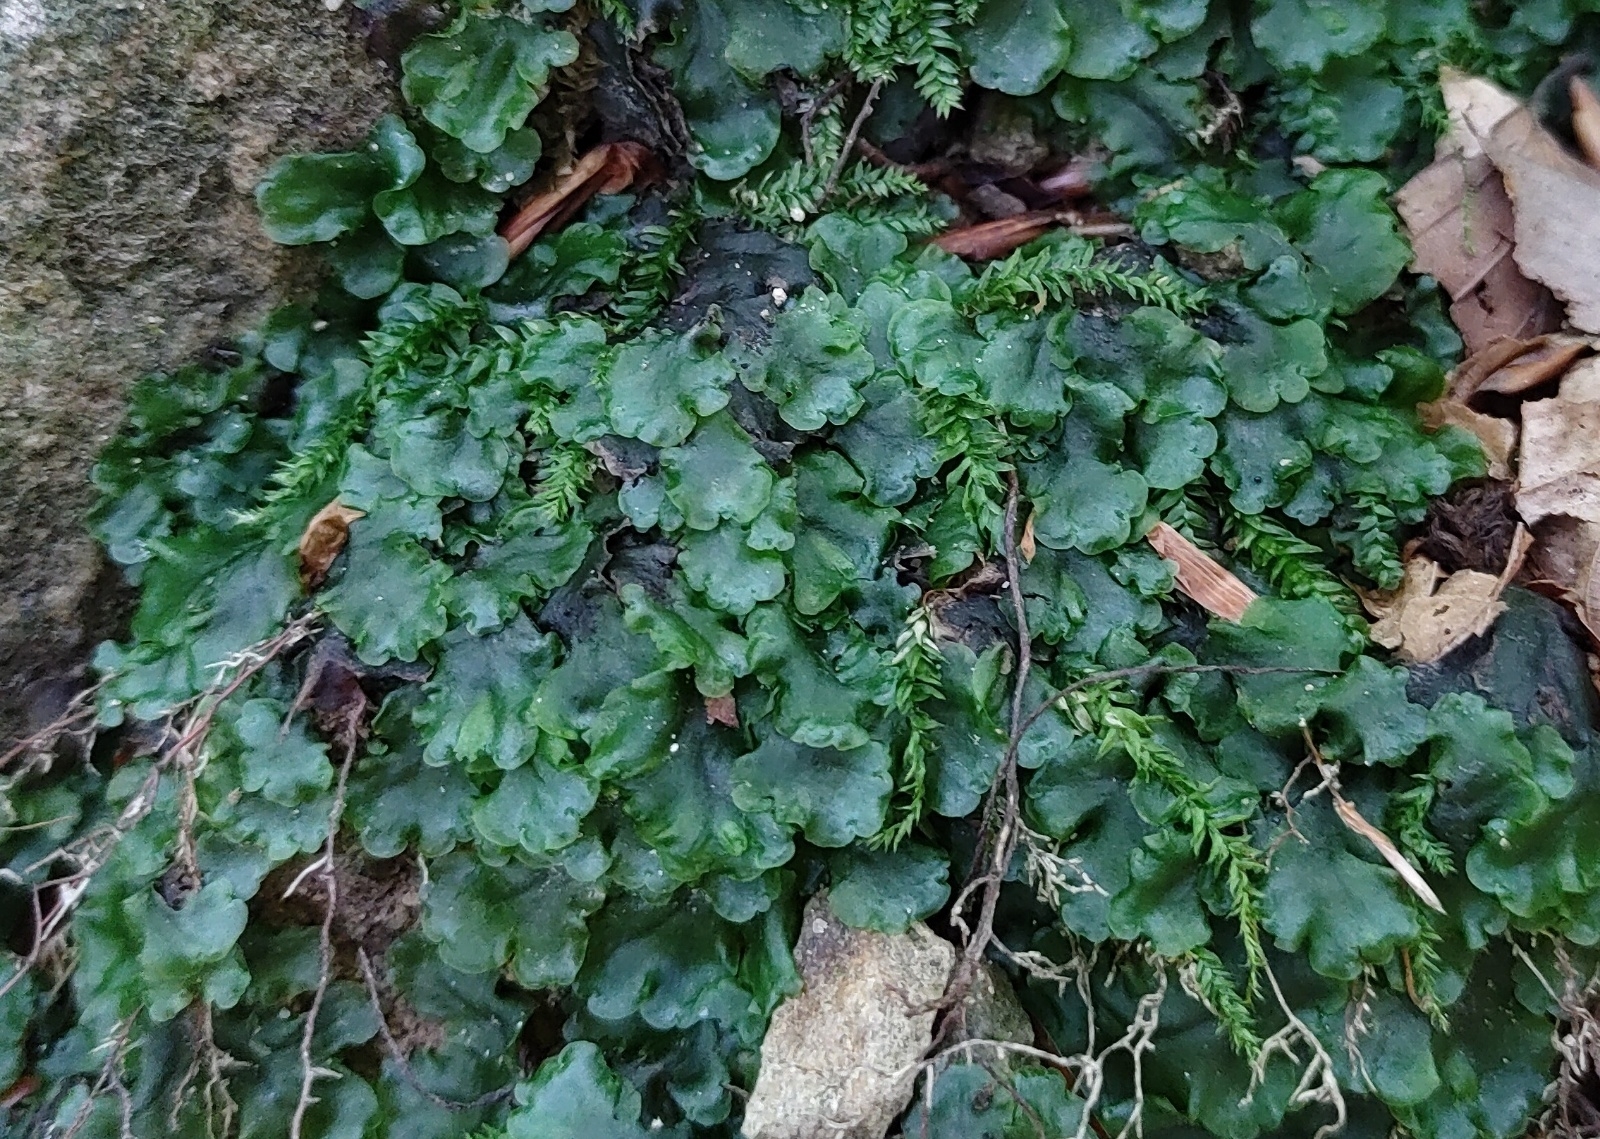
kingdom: Plantae
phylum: Marchantiophyta
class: Jungermanniopsida
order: Pelliales
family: Pelliaceae
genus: Pellia
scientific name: Pellia epiphylla
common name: Common pellia
